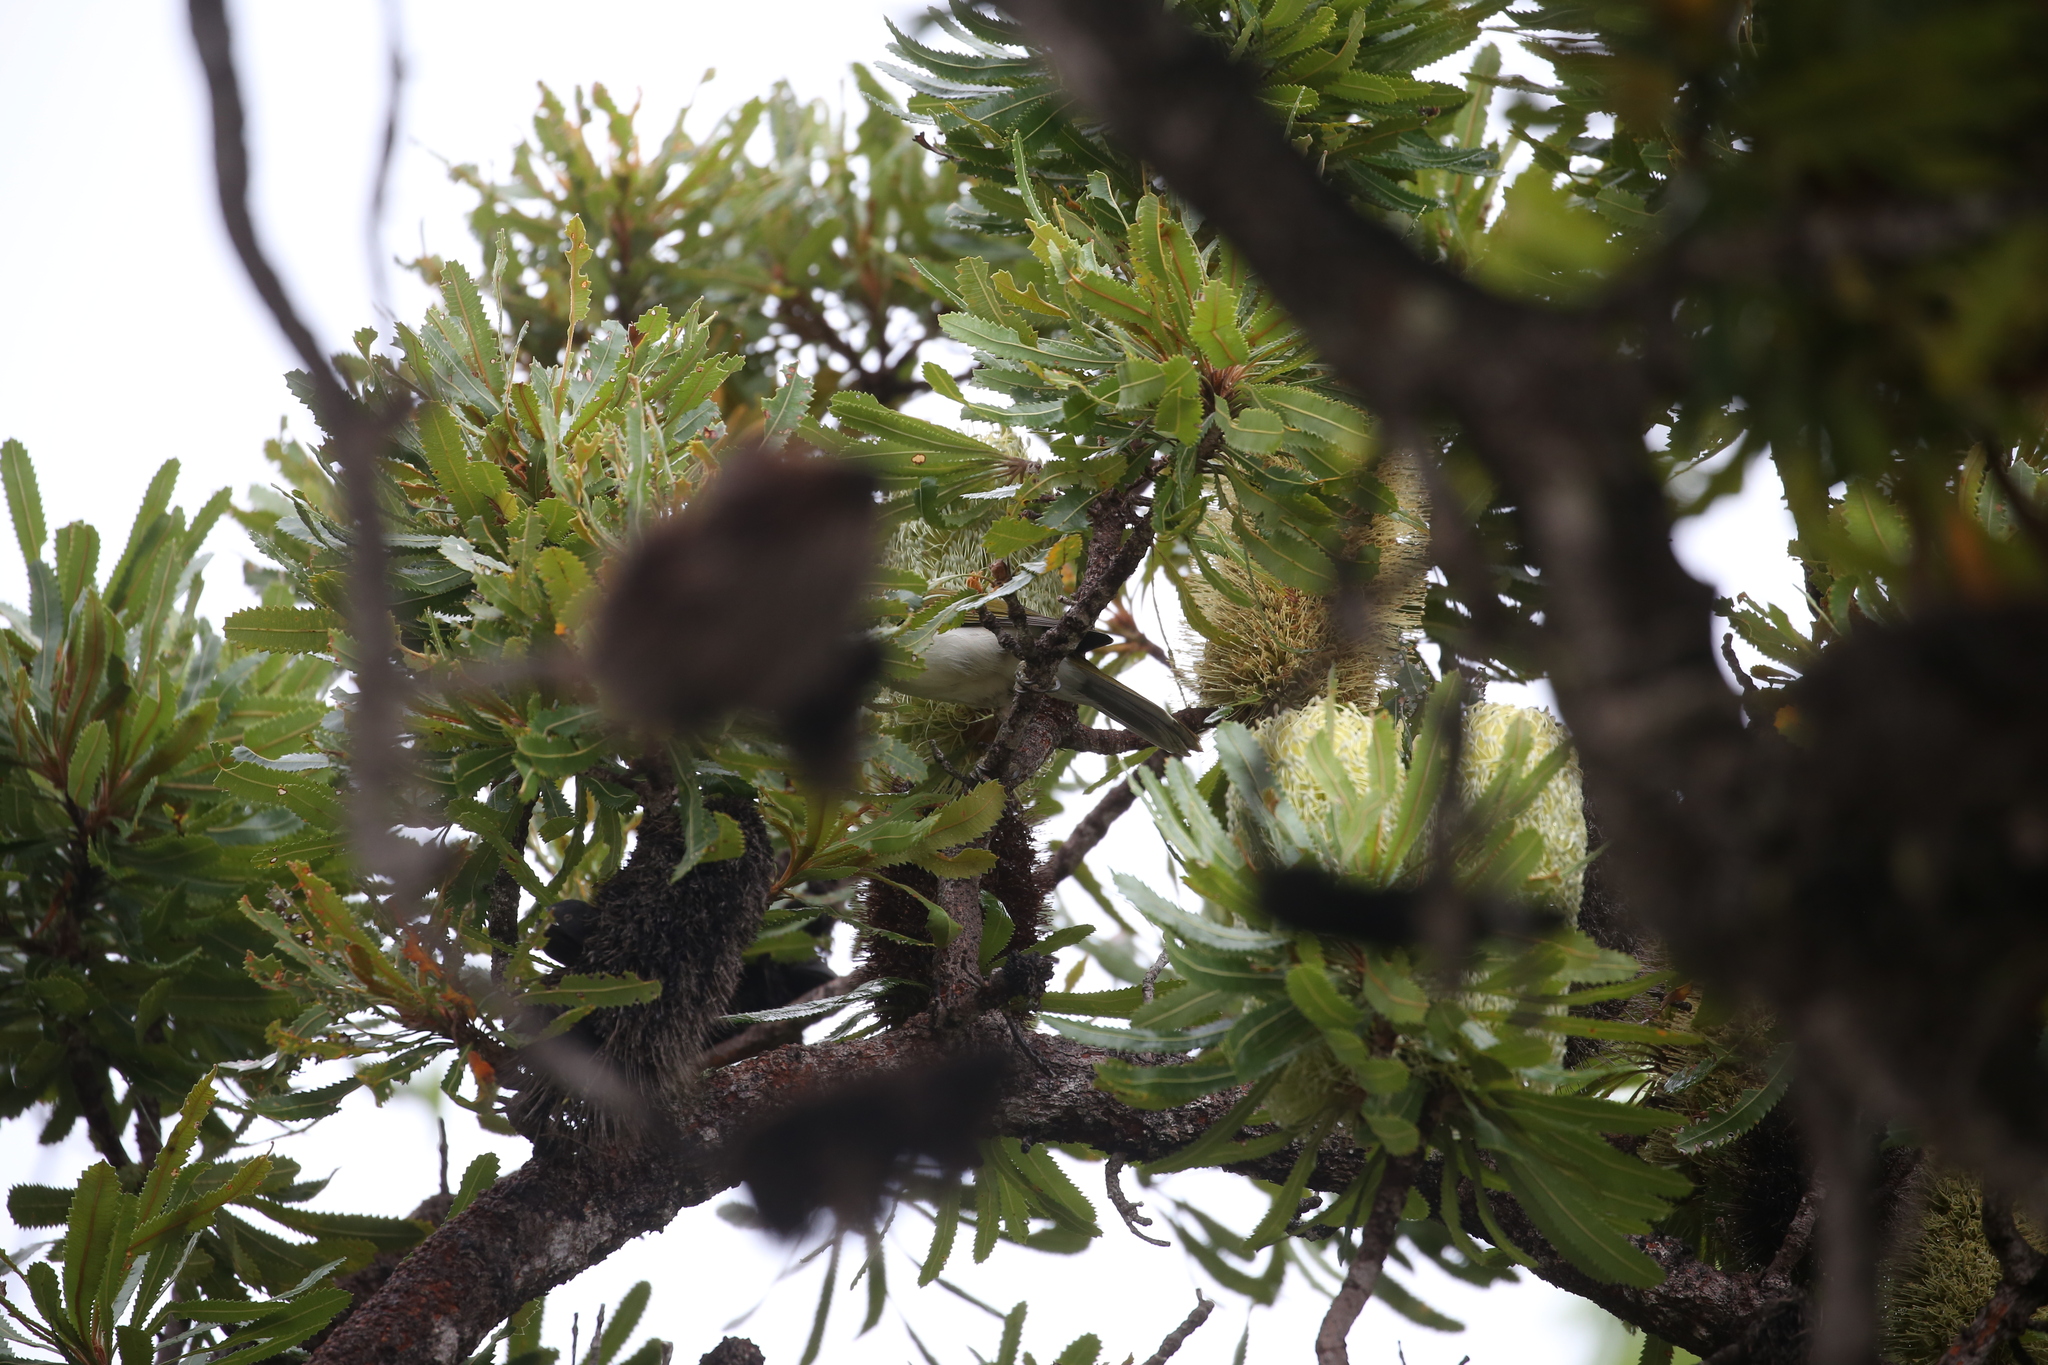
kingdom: Animalia
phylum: Chordata
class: Aves
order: Passeriformes
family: Meliphagidae
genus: Entomyzon
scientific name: Entomyzon cyanotis
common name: Blue-faced honeyeater
